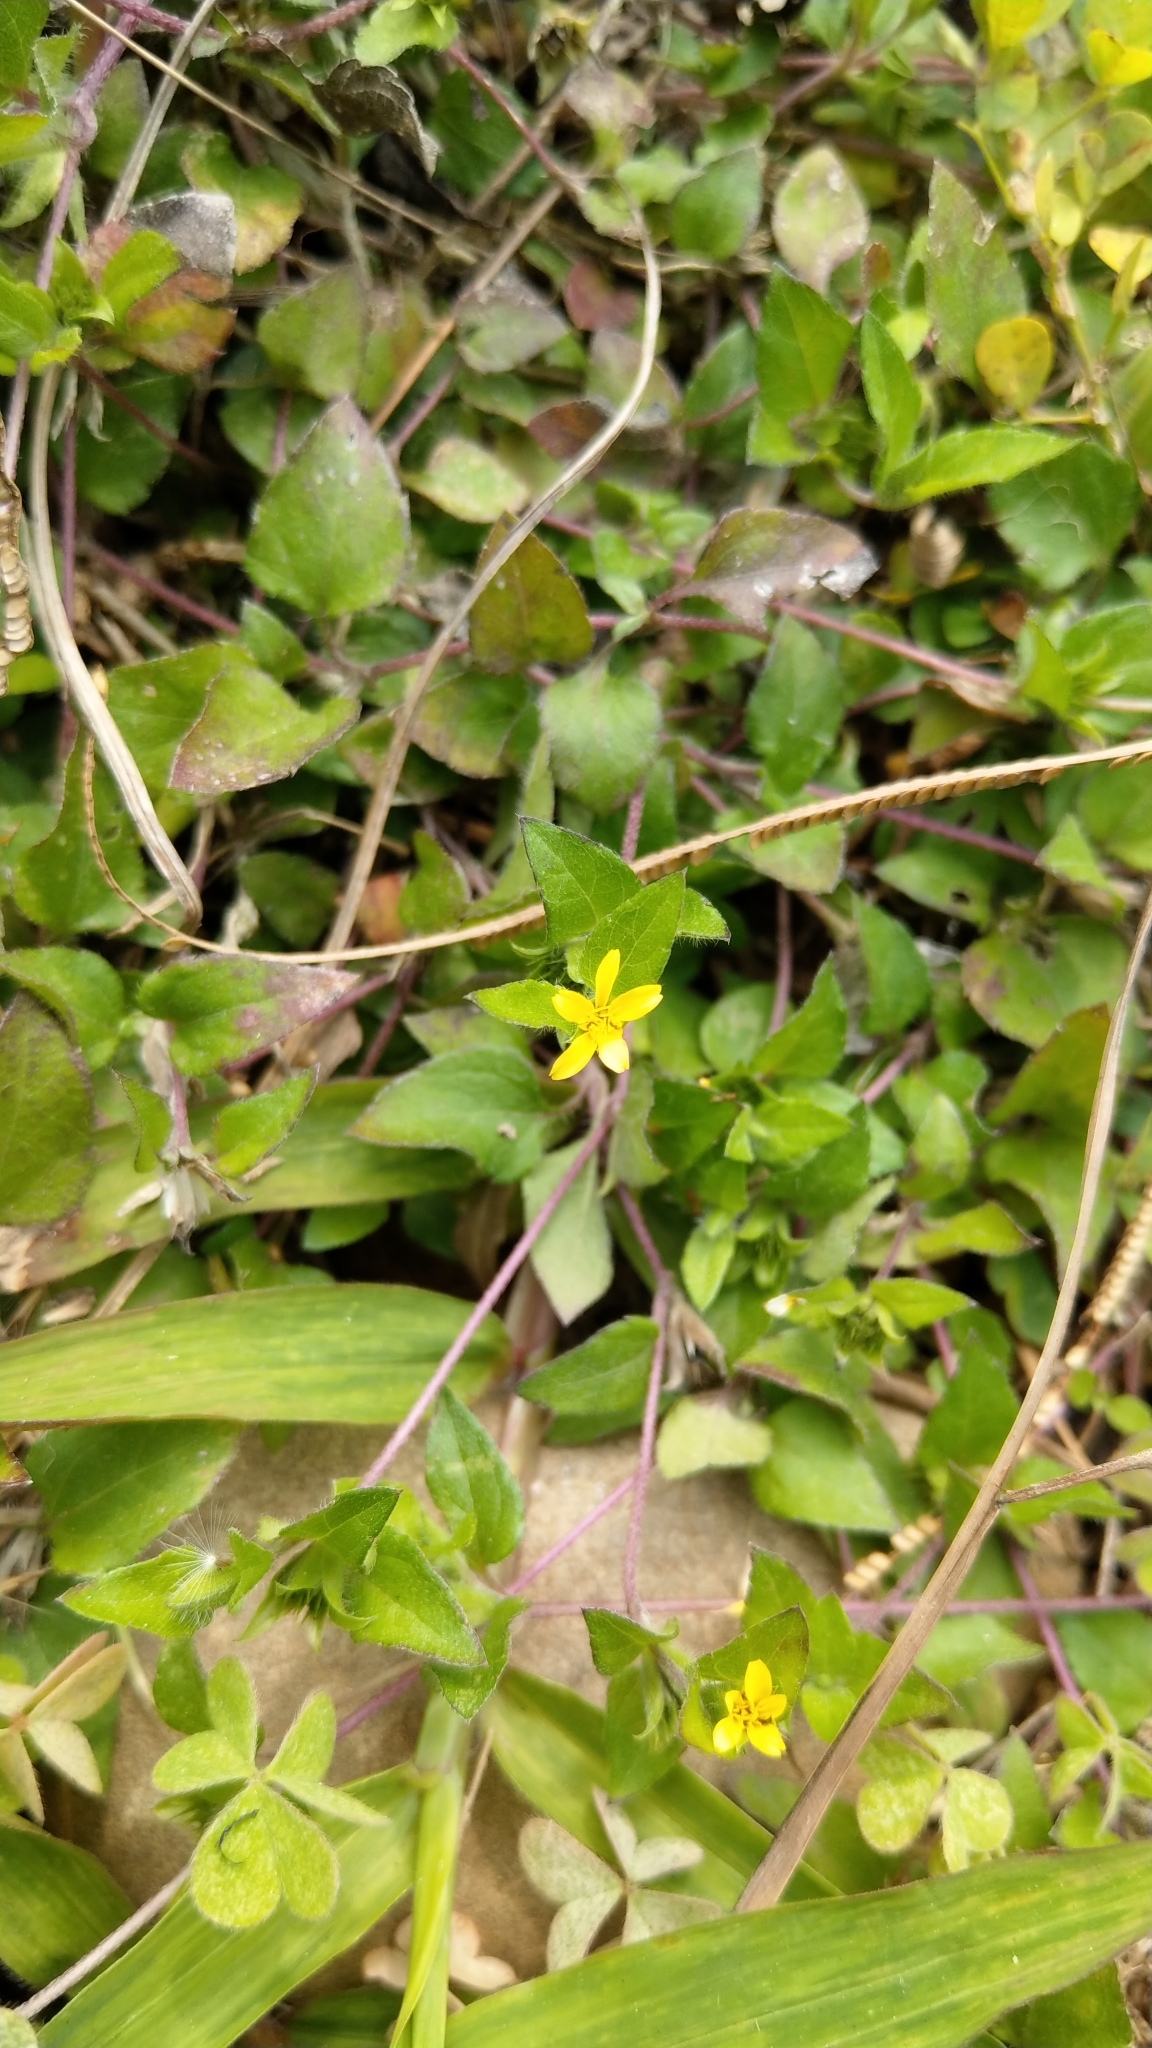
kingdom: Plantae
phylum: Tracheophyta
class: Magnoliopsida
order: Asterales
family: Asteraceae
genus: Calyptocarpus
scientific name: Calyptocarpus vialis
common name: Straggler daisy
